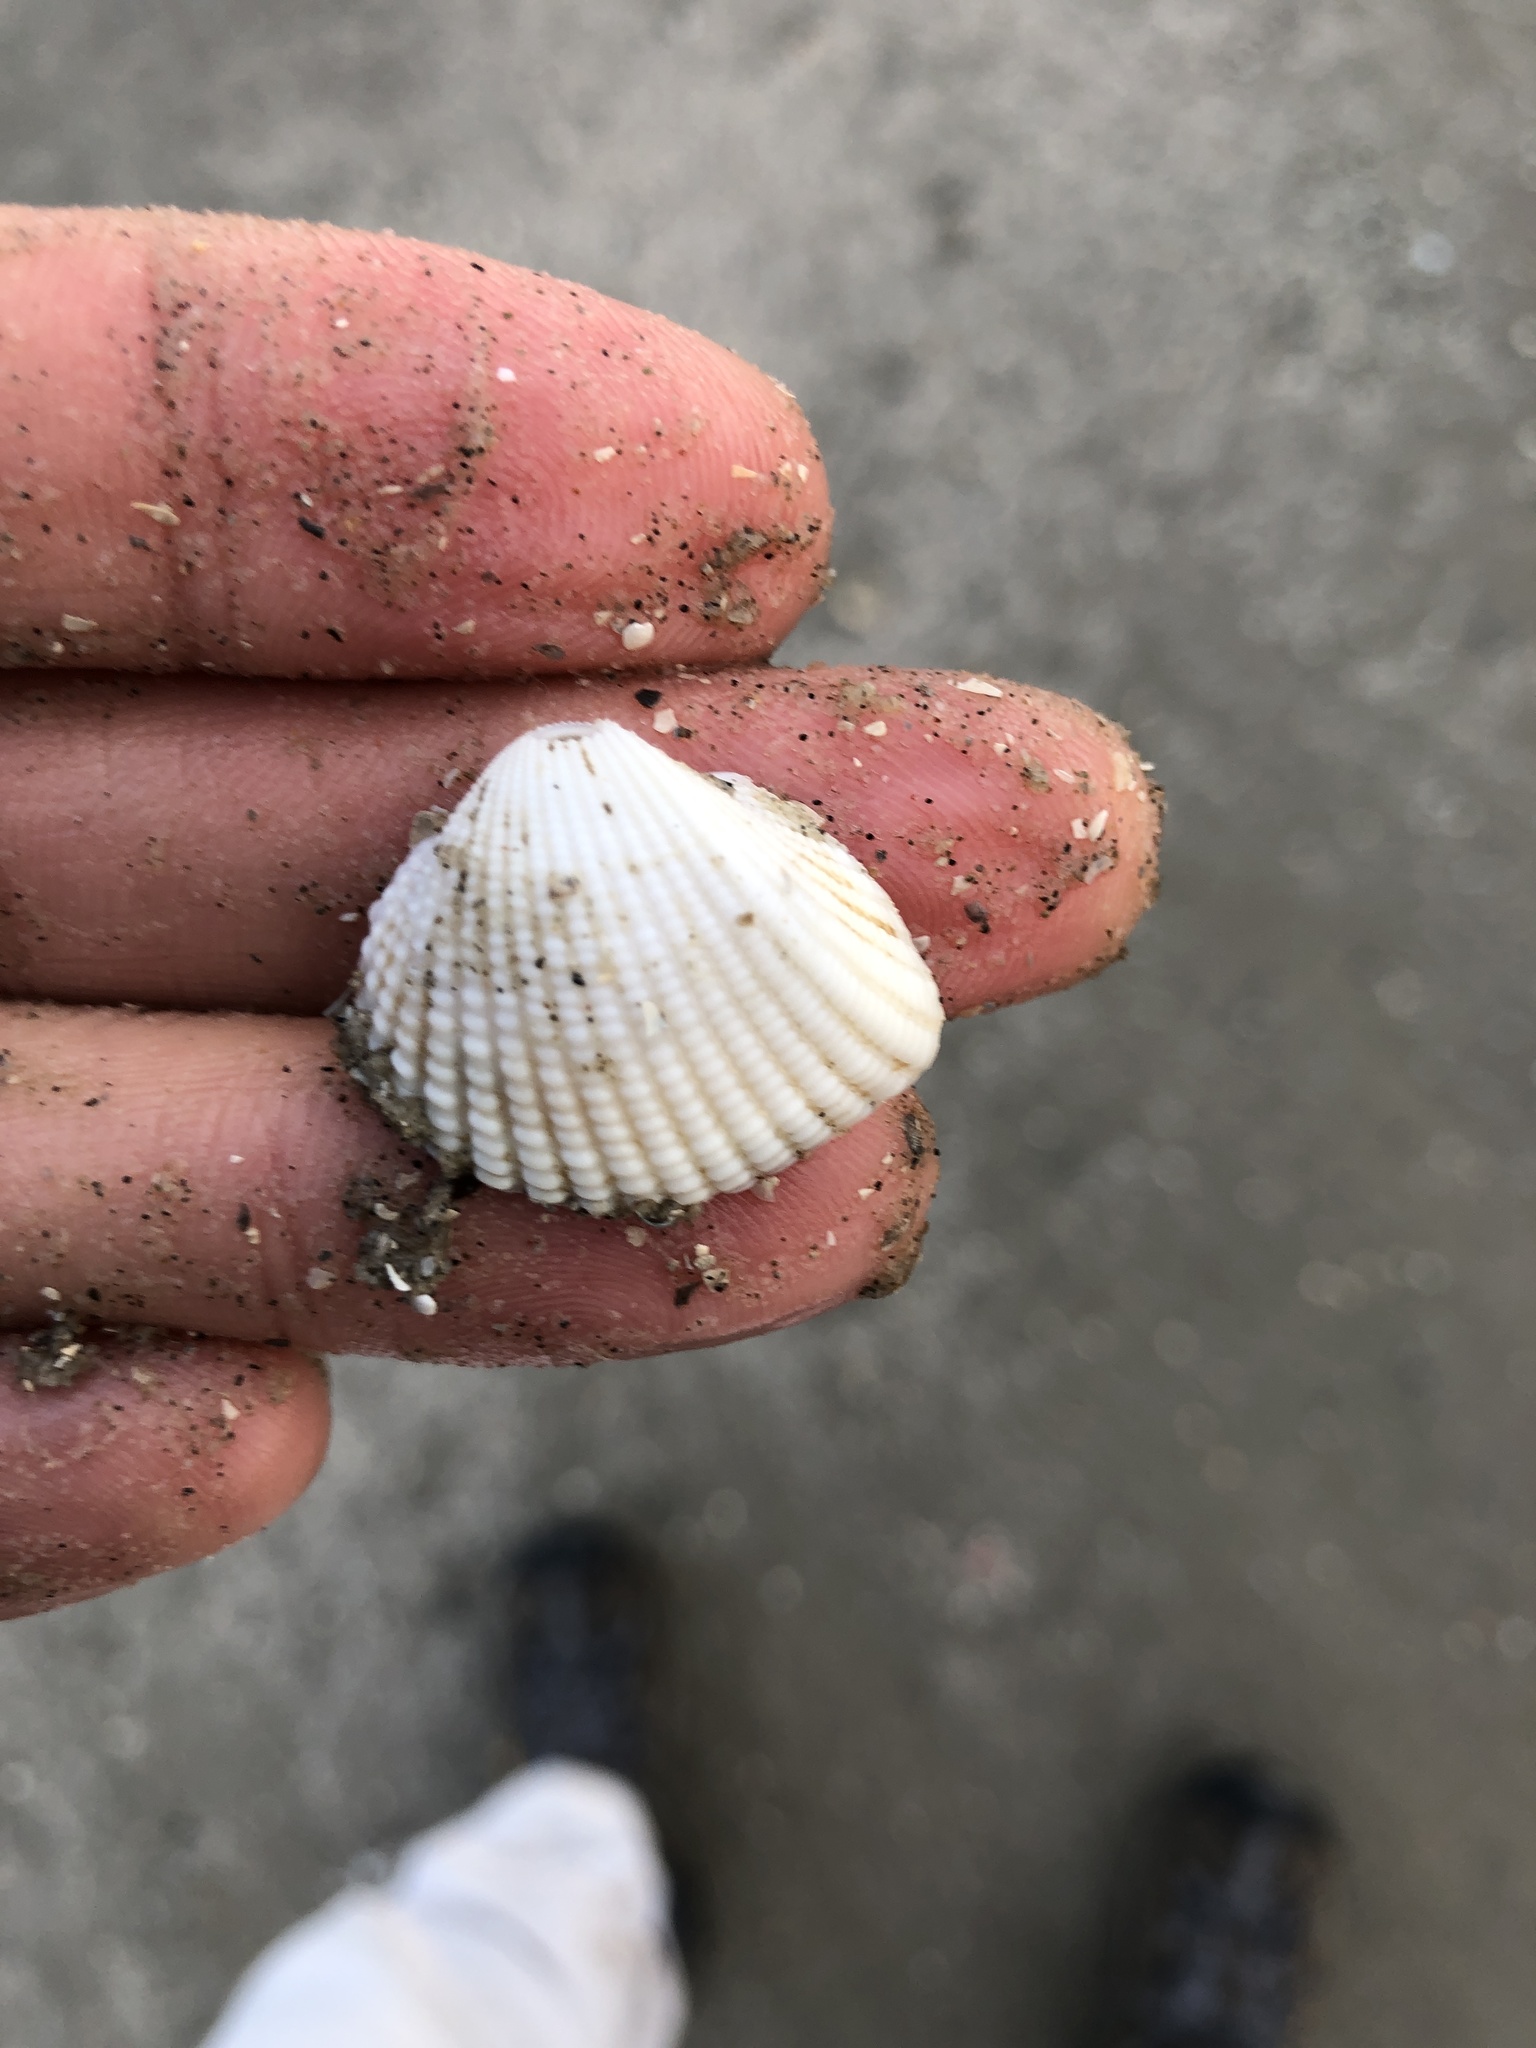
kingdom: Animalia
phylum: Mollusca
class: Bivalvia
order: Arcida
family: Arcidae
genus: Anadara
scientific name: Anadara brasiliana
